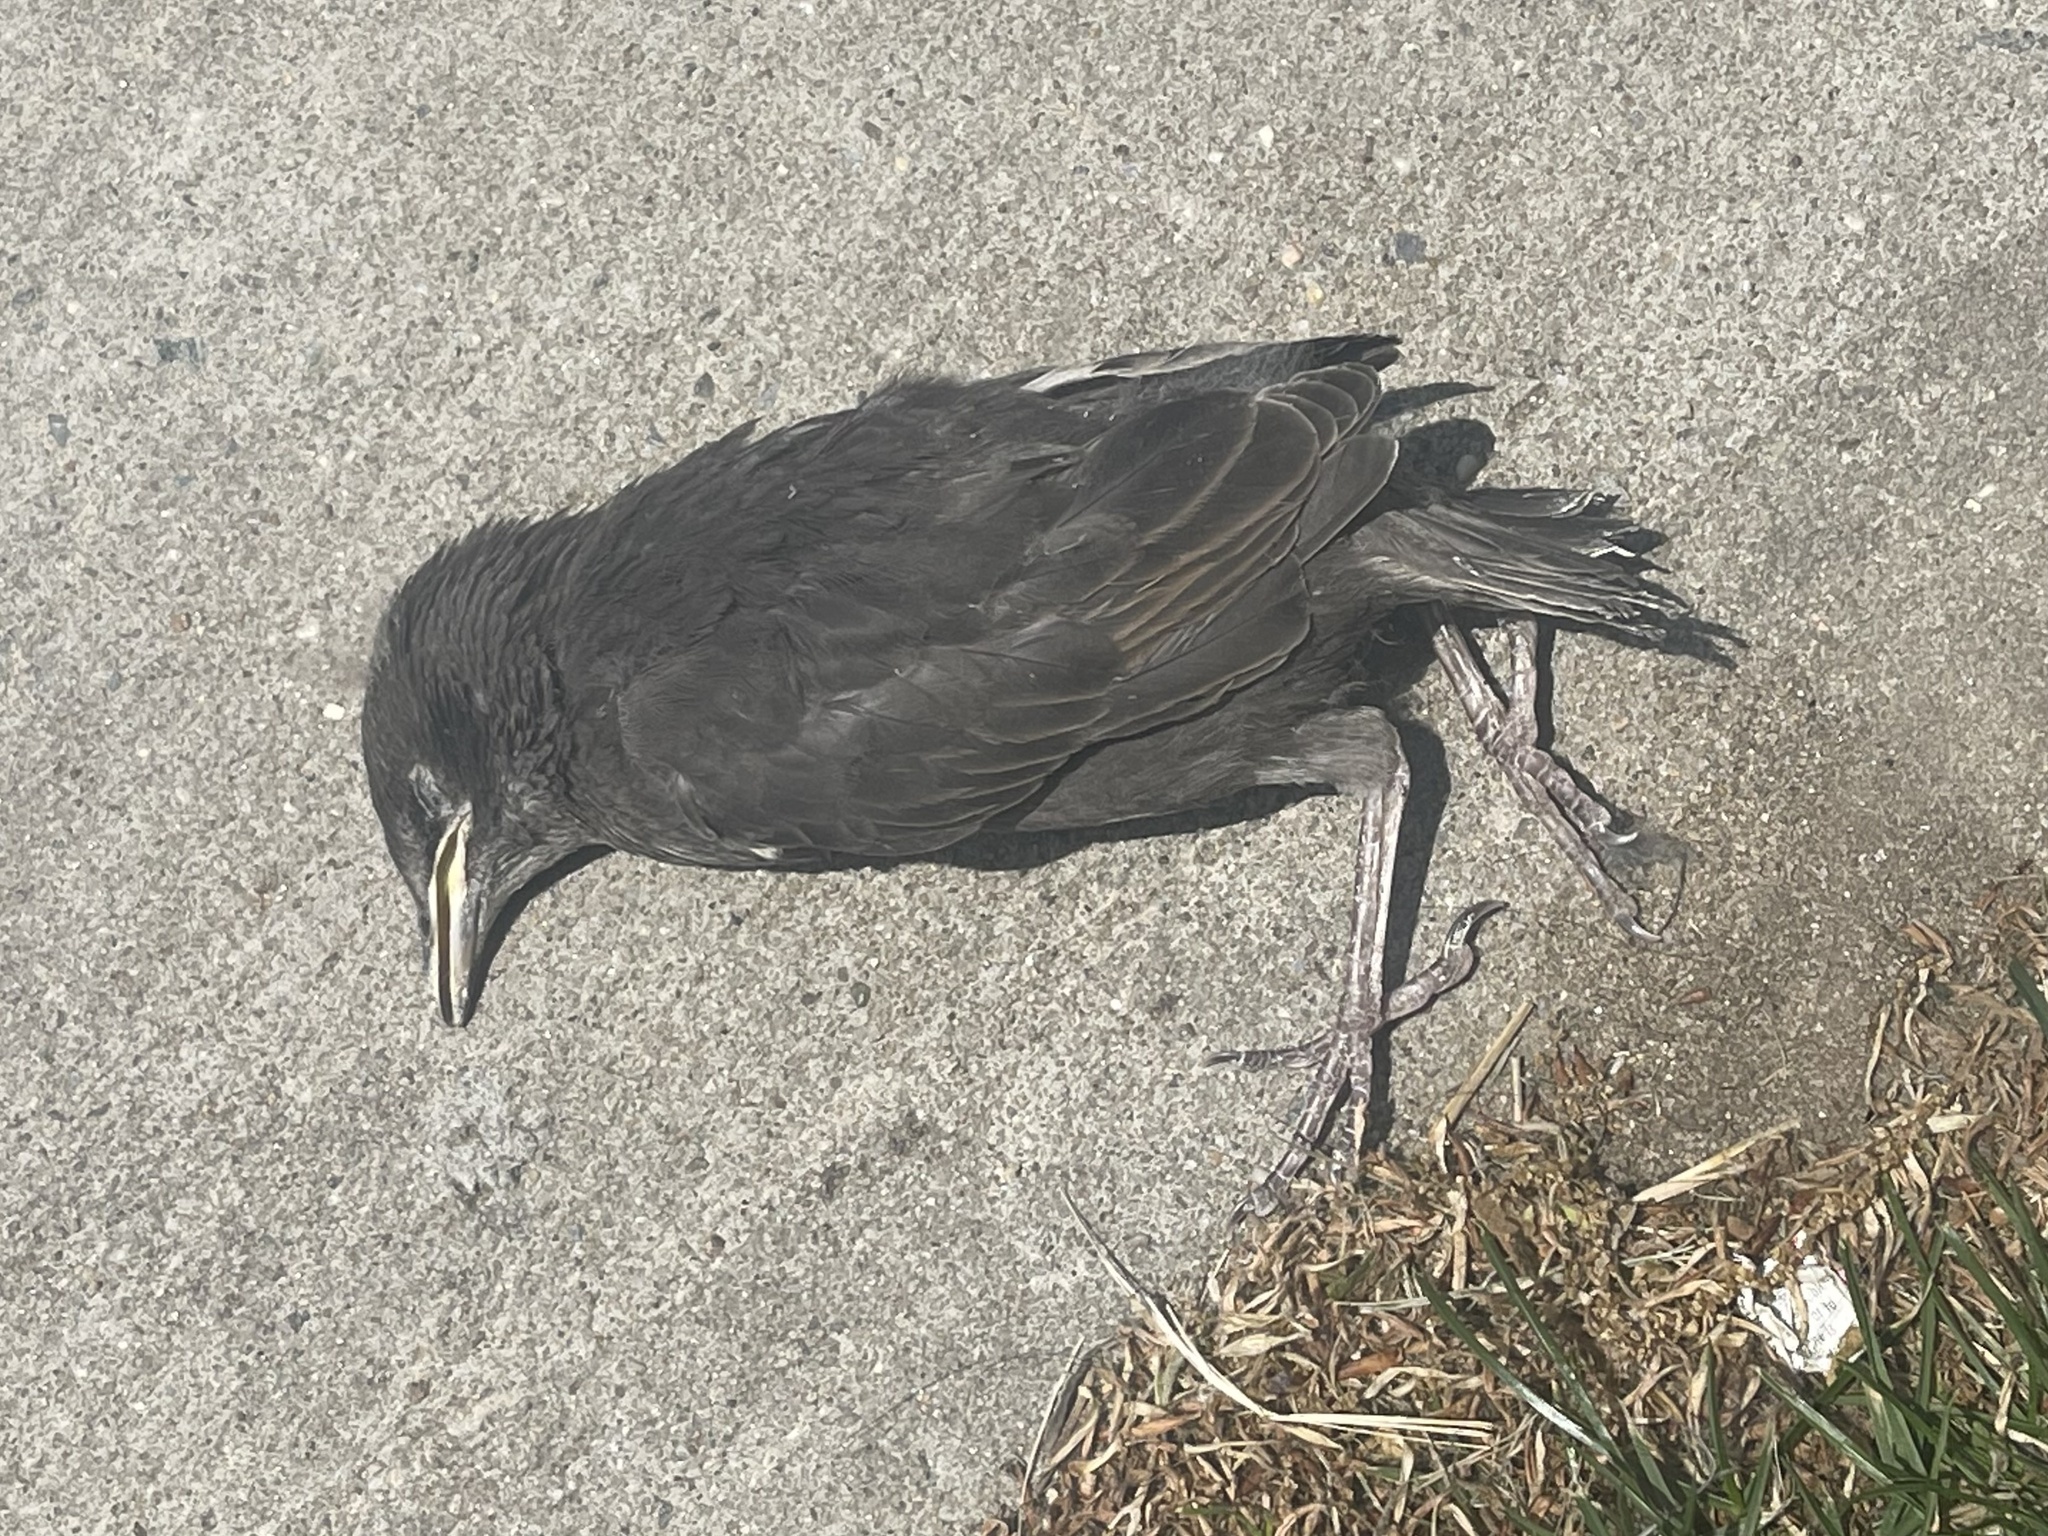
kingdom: Animalia
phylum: Chordata
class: Aves
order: Passeriformes
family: Sturnidae
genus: Sturnus
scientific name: Sturnus vulgaris
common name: Common starling
